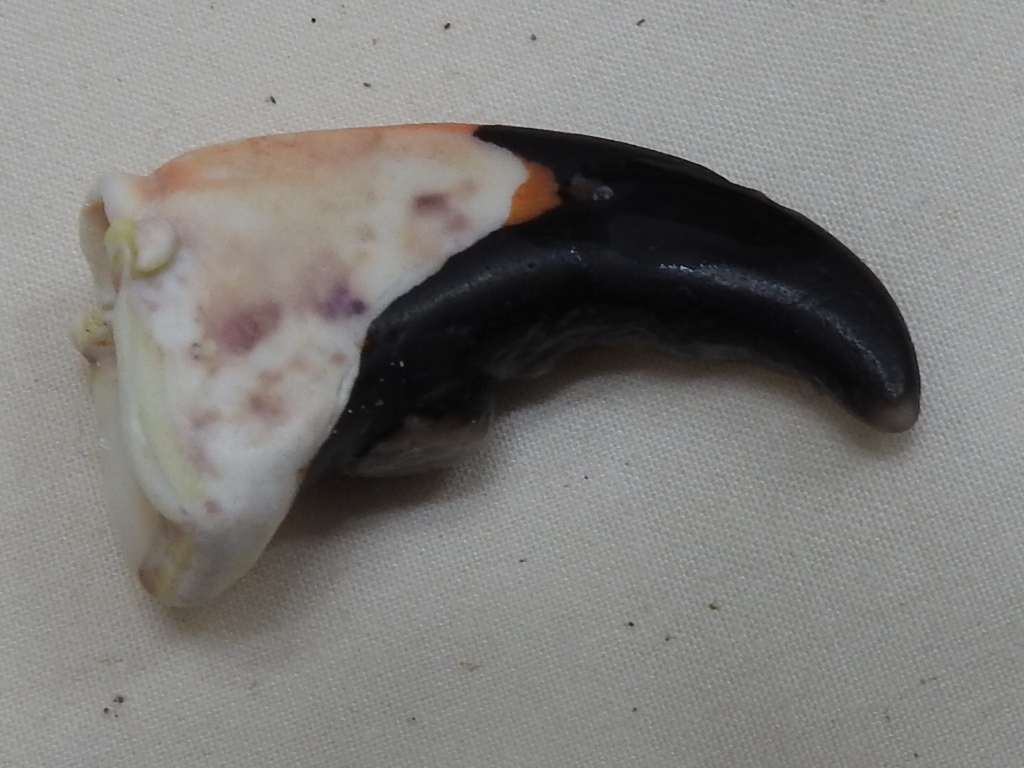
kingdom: Animalia
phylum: Arthropoda
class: Malacostraca
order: Decapoda
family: Menippidae
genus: Menippe
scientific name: Menippe mercenaria
